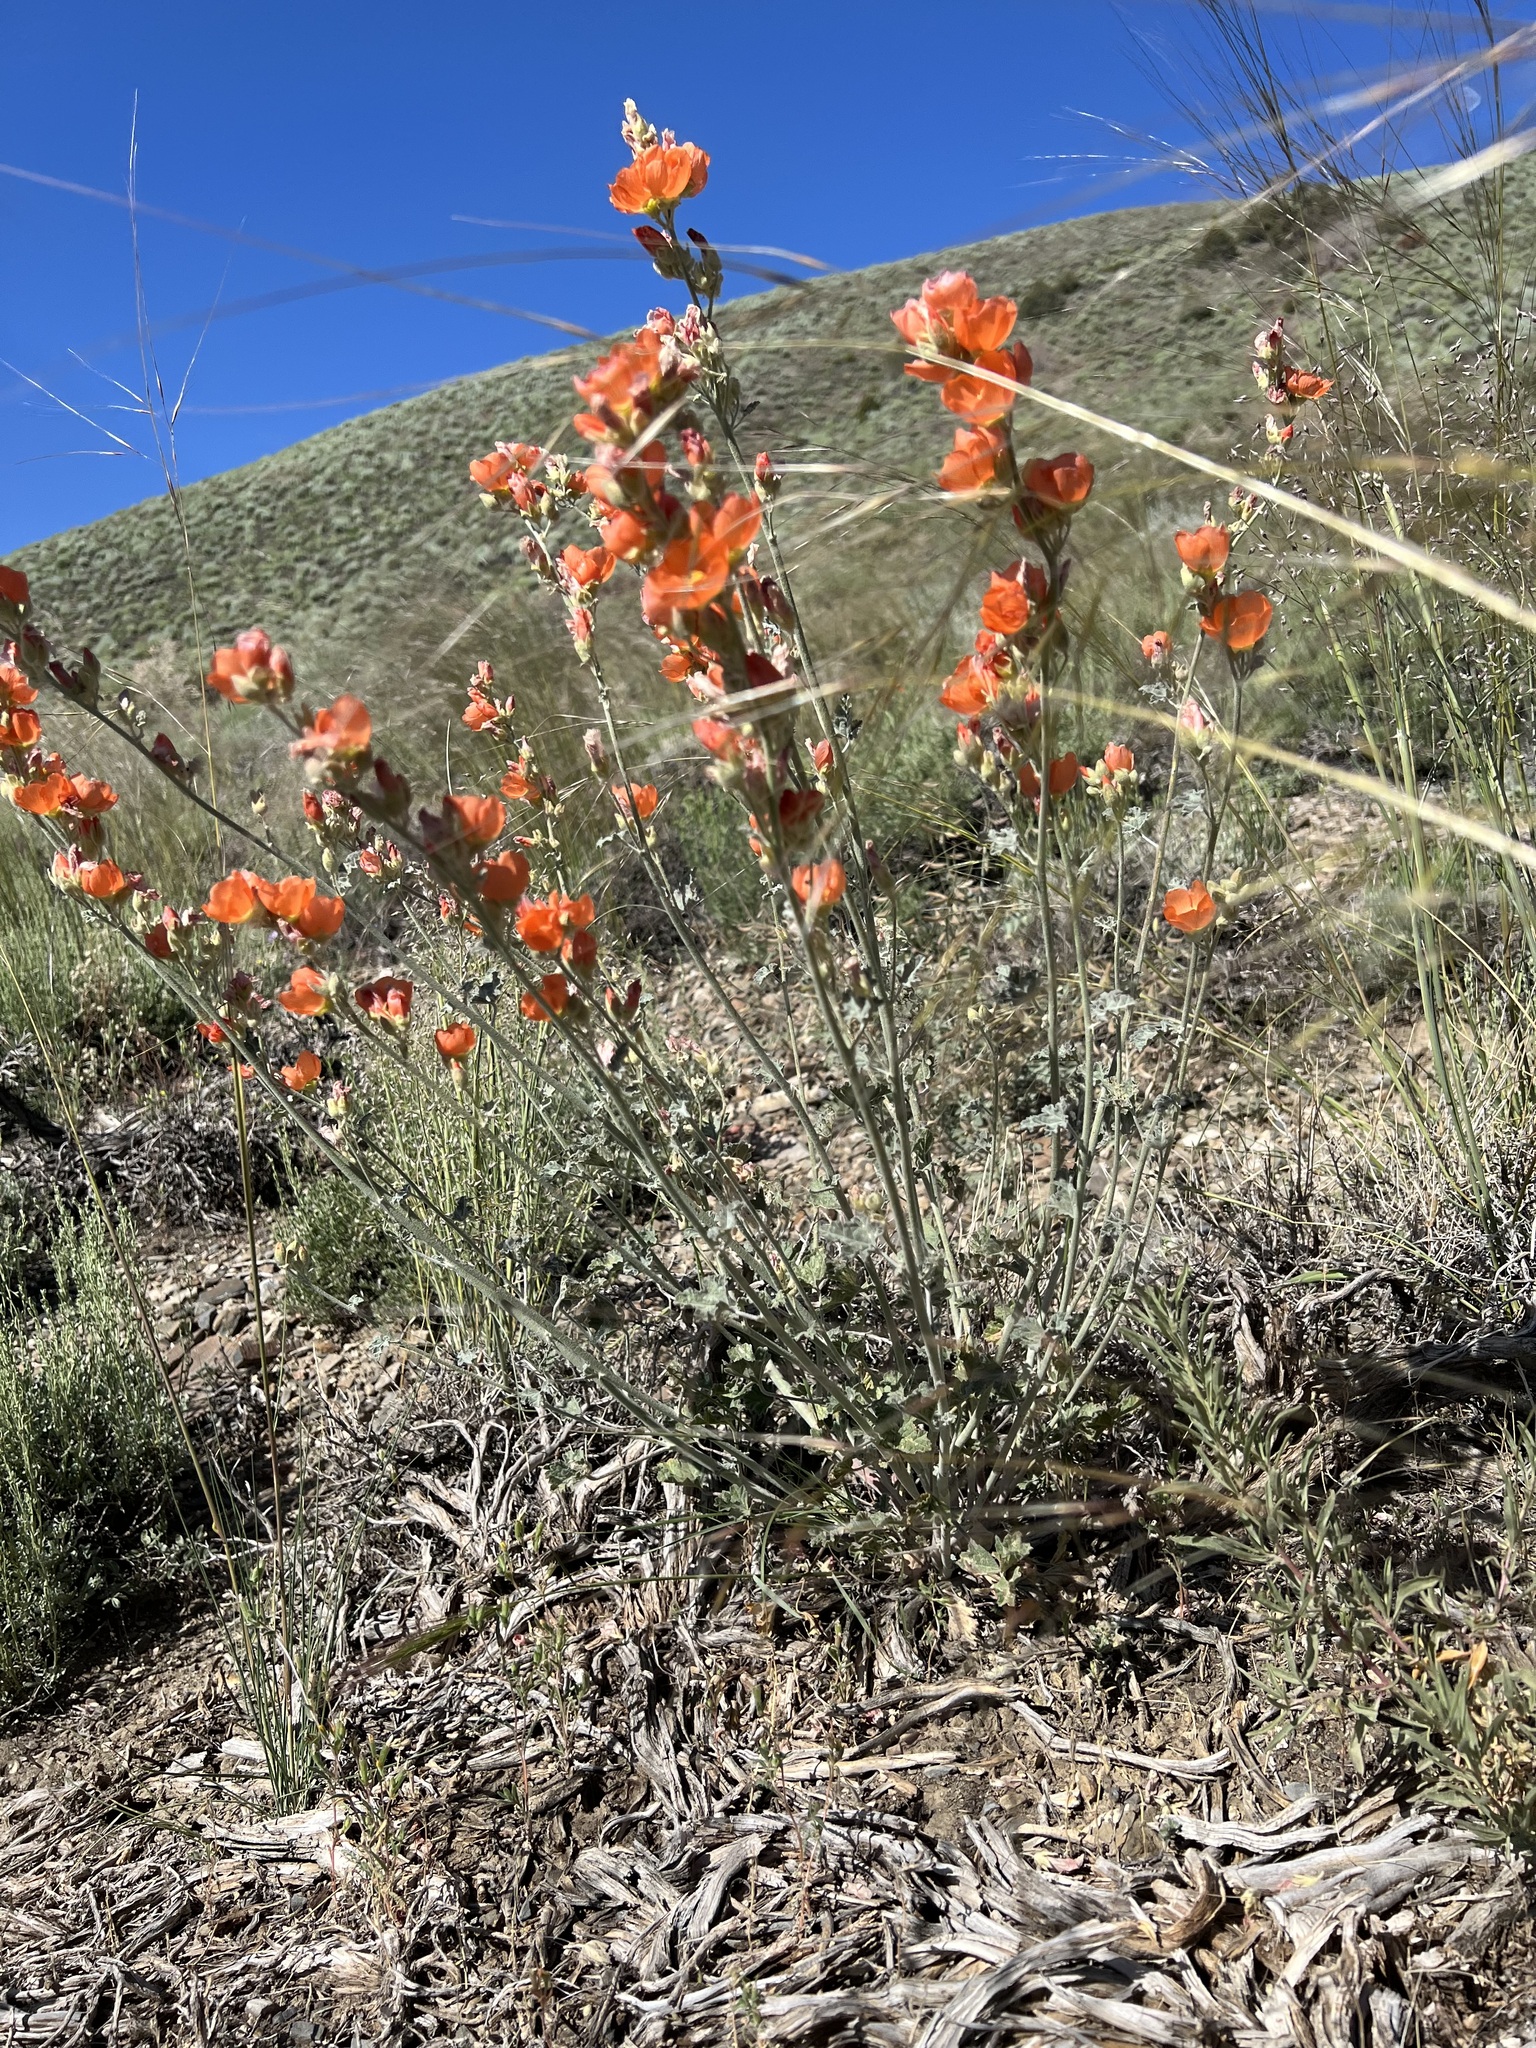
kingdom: Plantae
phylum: Tracheophyta
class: Magnoliopsida
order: Malvales
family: Malvaceae
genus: Sphaeralcea
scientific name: Sphaeralcea ambigua
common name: Apricot globe-mallow
